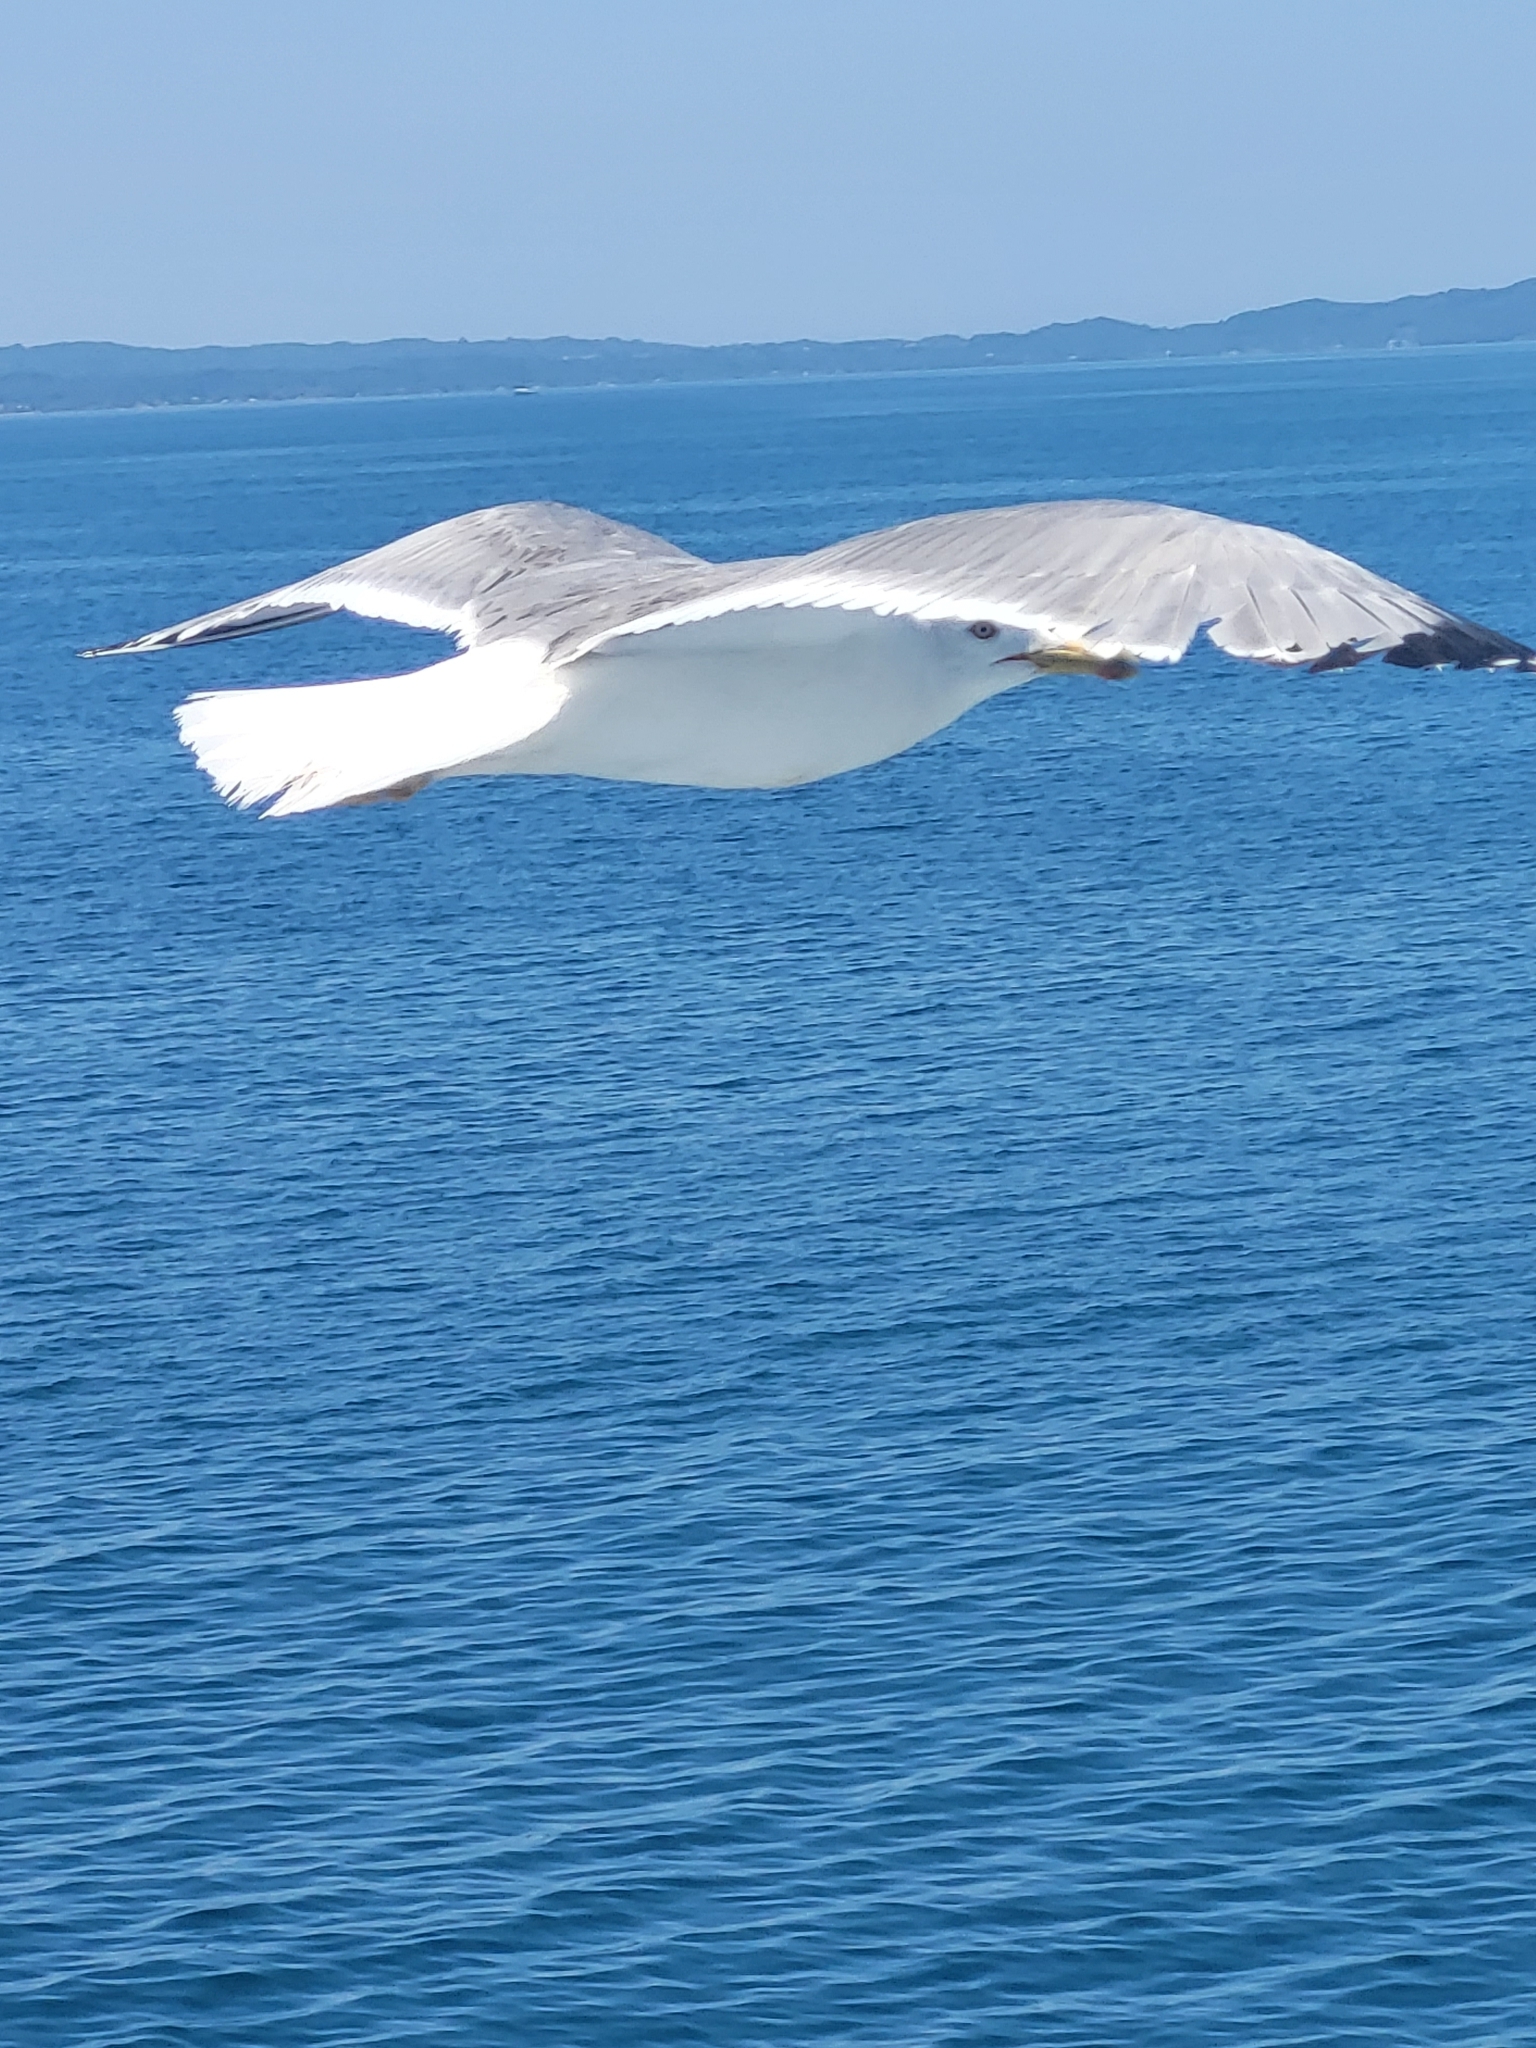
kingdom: Animalia
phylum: Chordata
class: Aves
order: Charadriiformes
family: Laridae
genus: Larus
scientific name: Larus michahellis
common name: Yellow-legged gull
